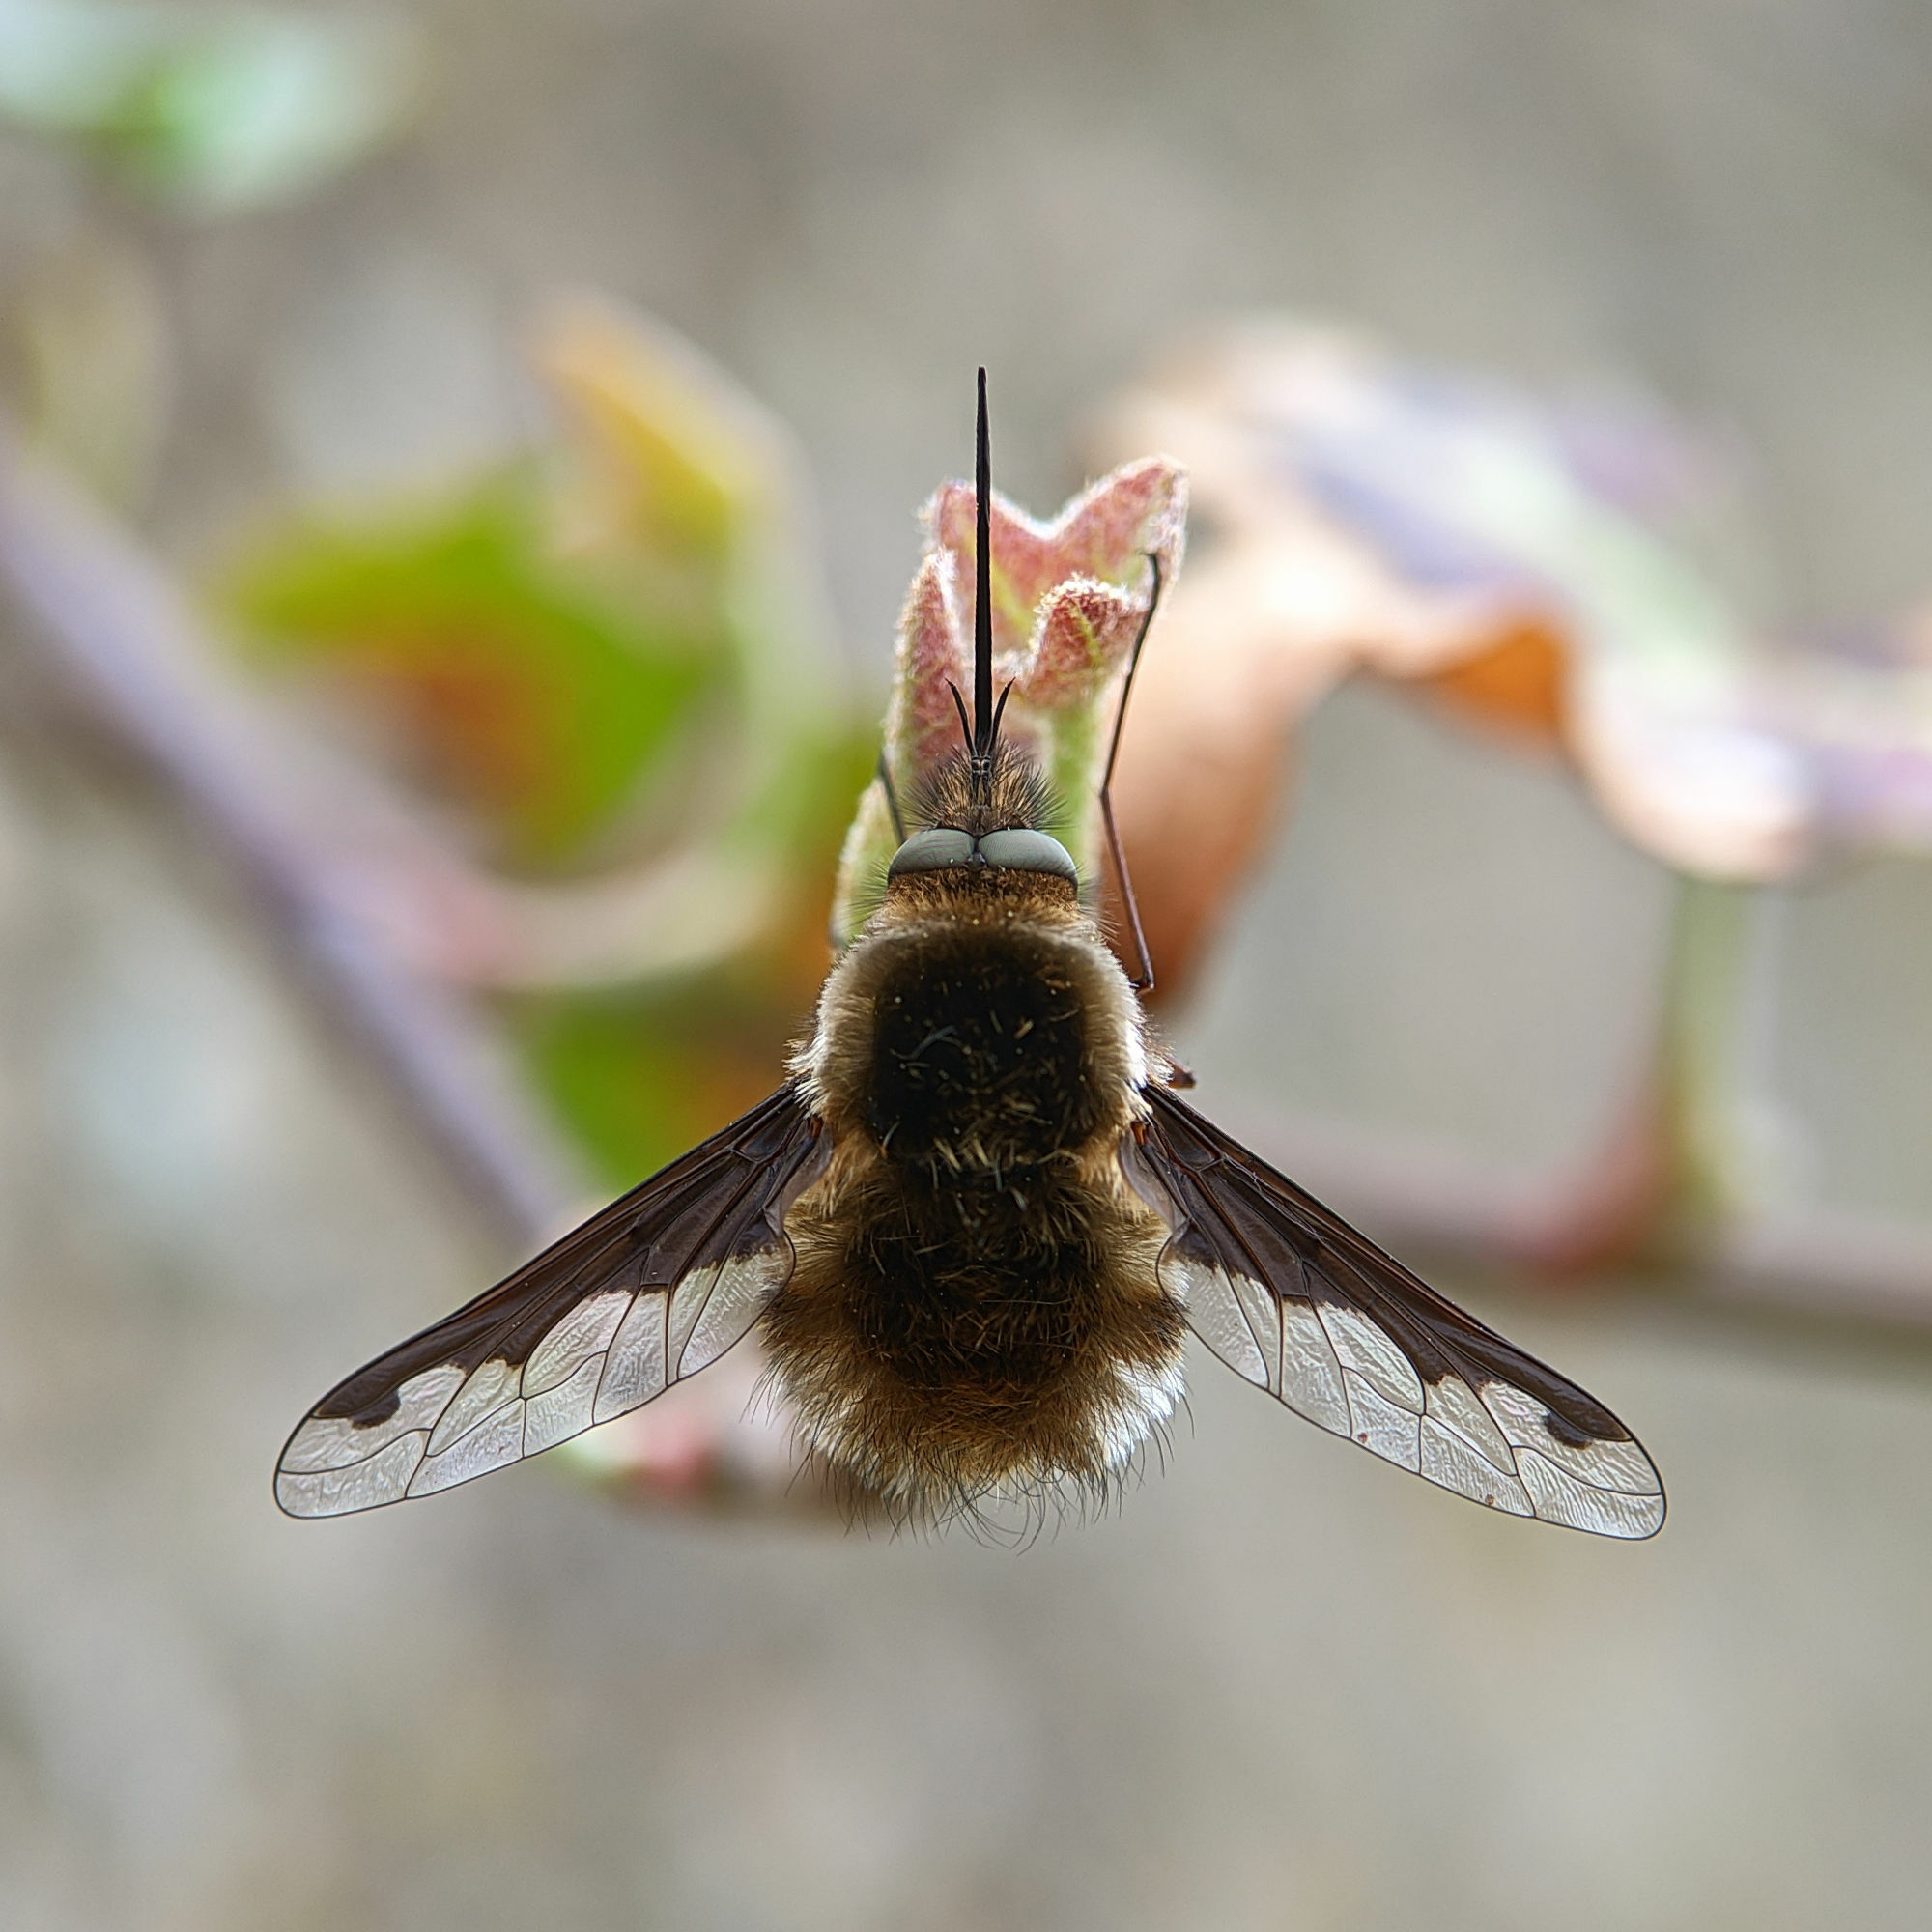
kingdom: Animalia
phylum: Arthropoda
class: Insecta
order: Diptera
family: Bombyliidae
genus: Bombylius
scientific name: Bombylius major
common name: Bee fly
